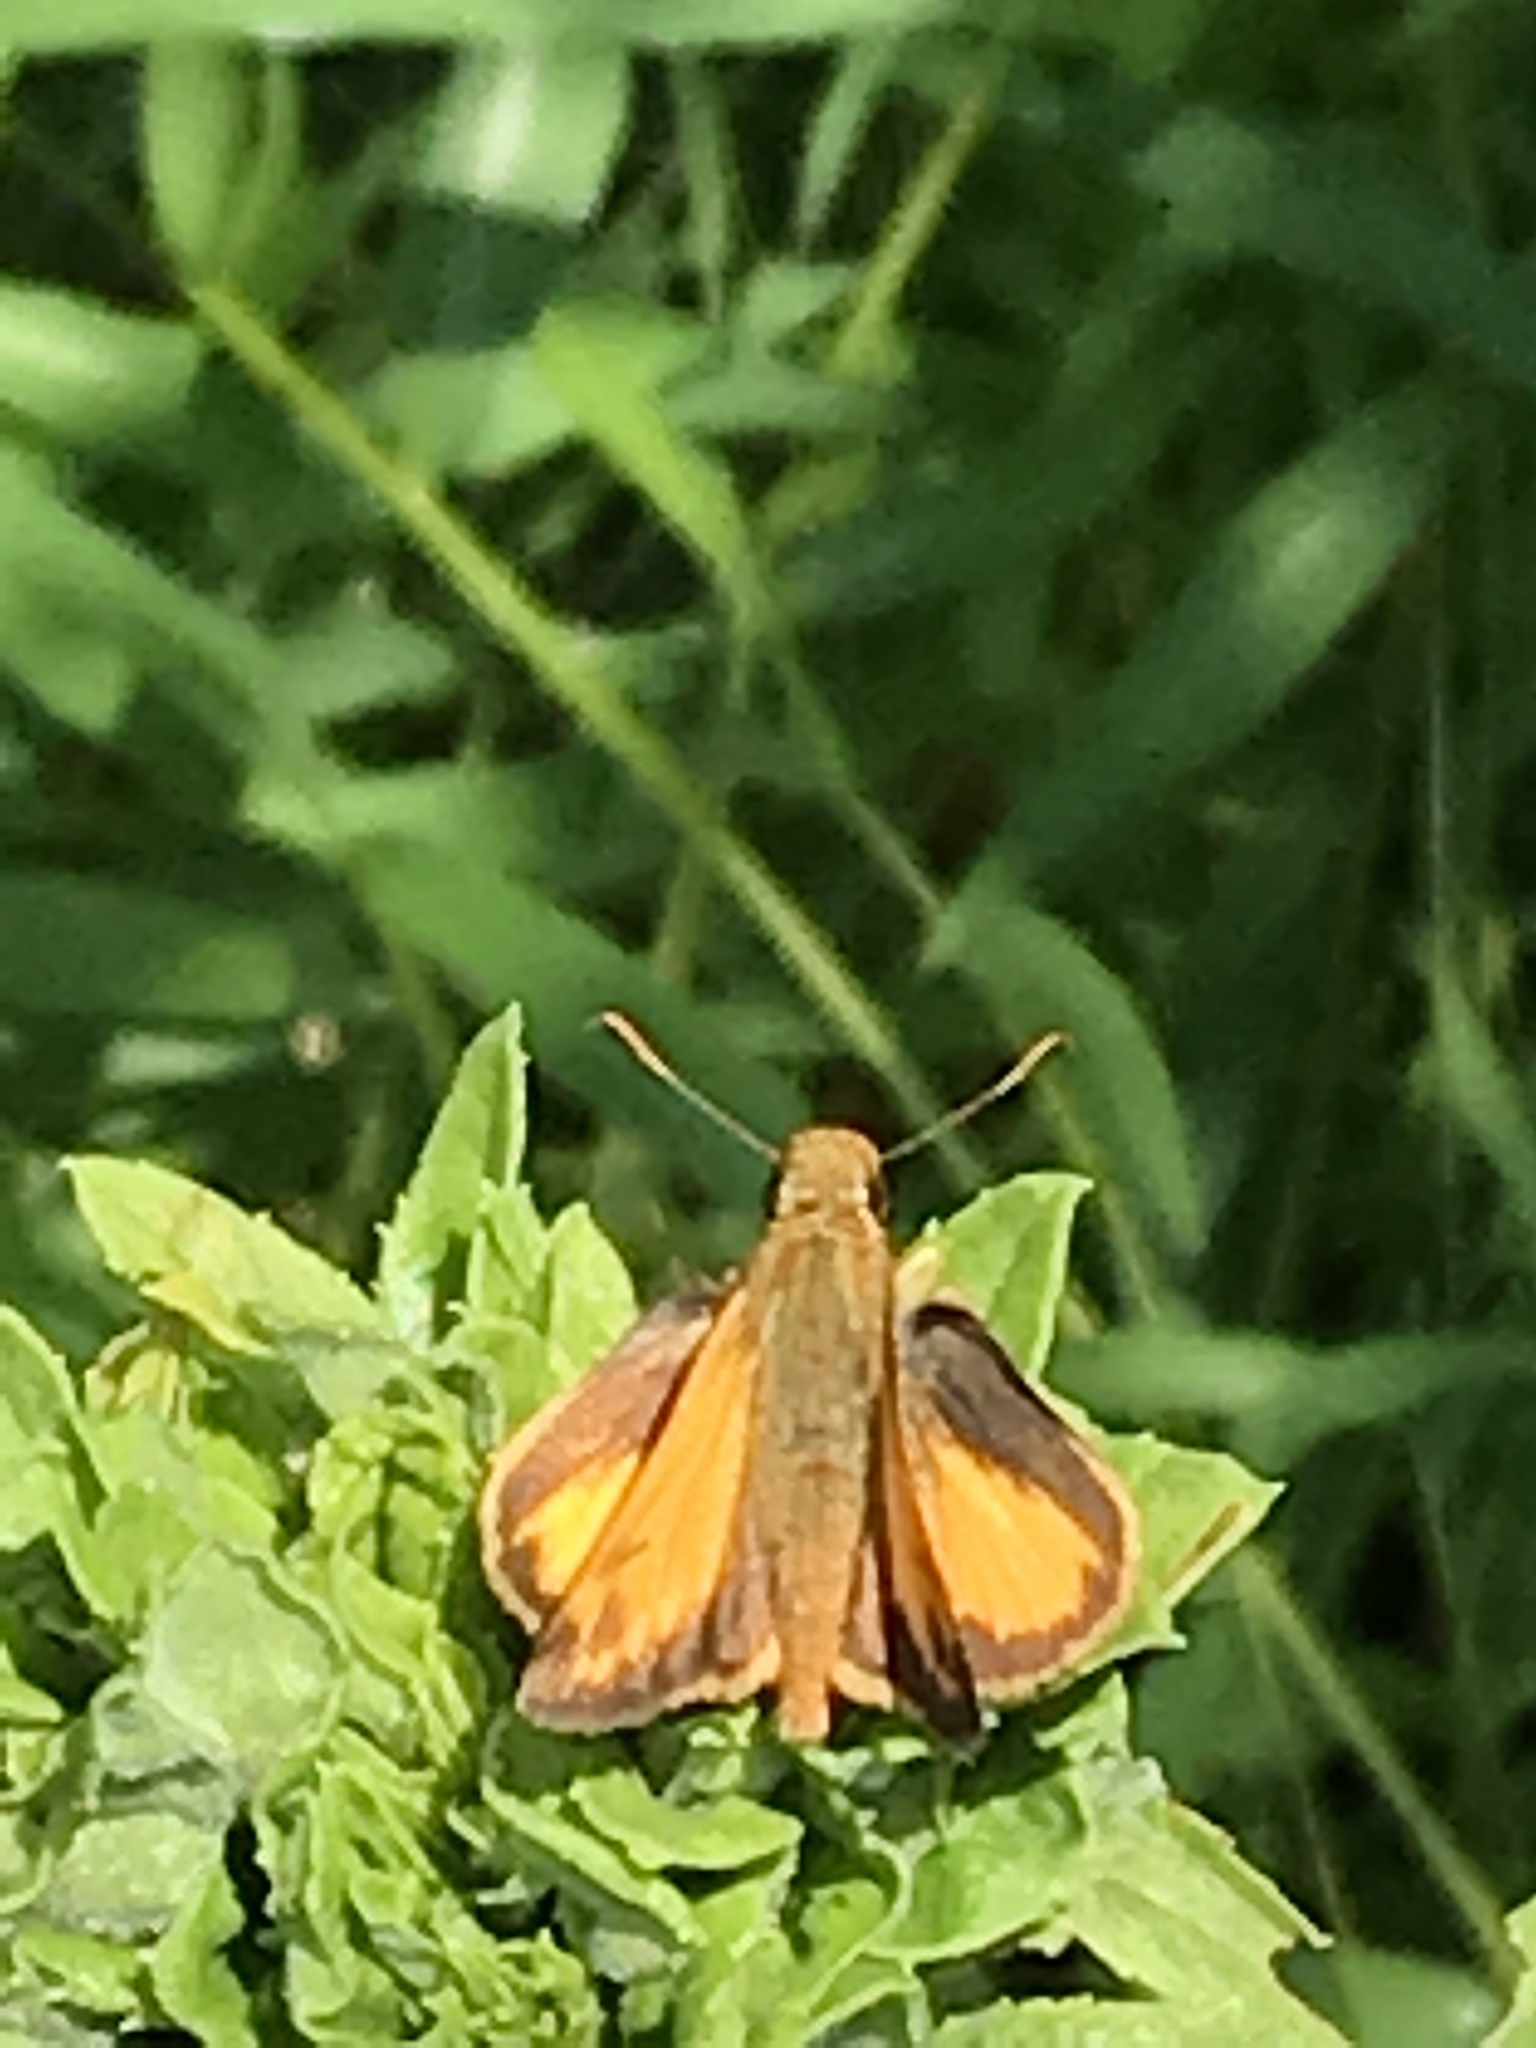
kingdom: Animalia
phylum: Arthropoda
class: Insecta
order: Lepidoptera
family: Hesperiidae
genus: Lon
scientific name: Lon zabulon
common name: Zabulon skipper
